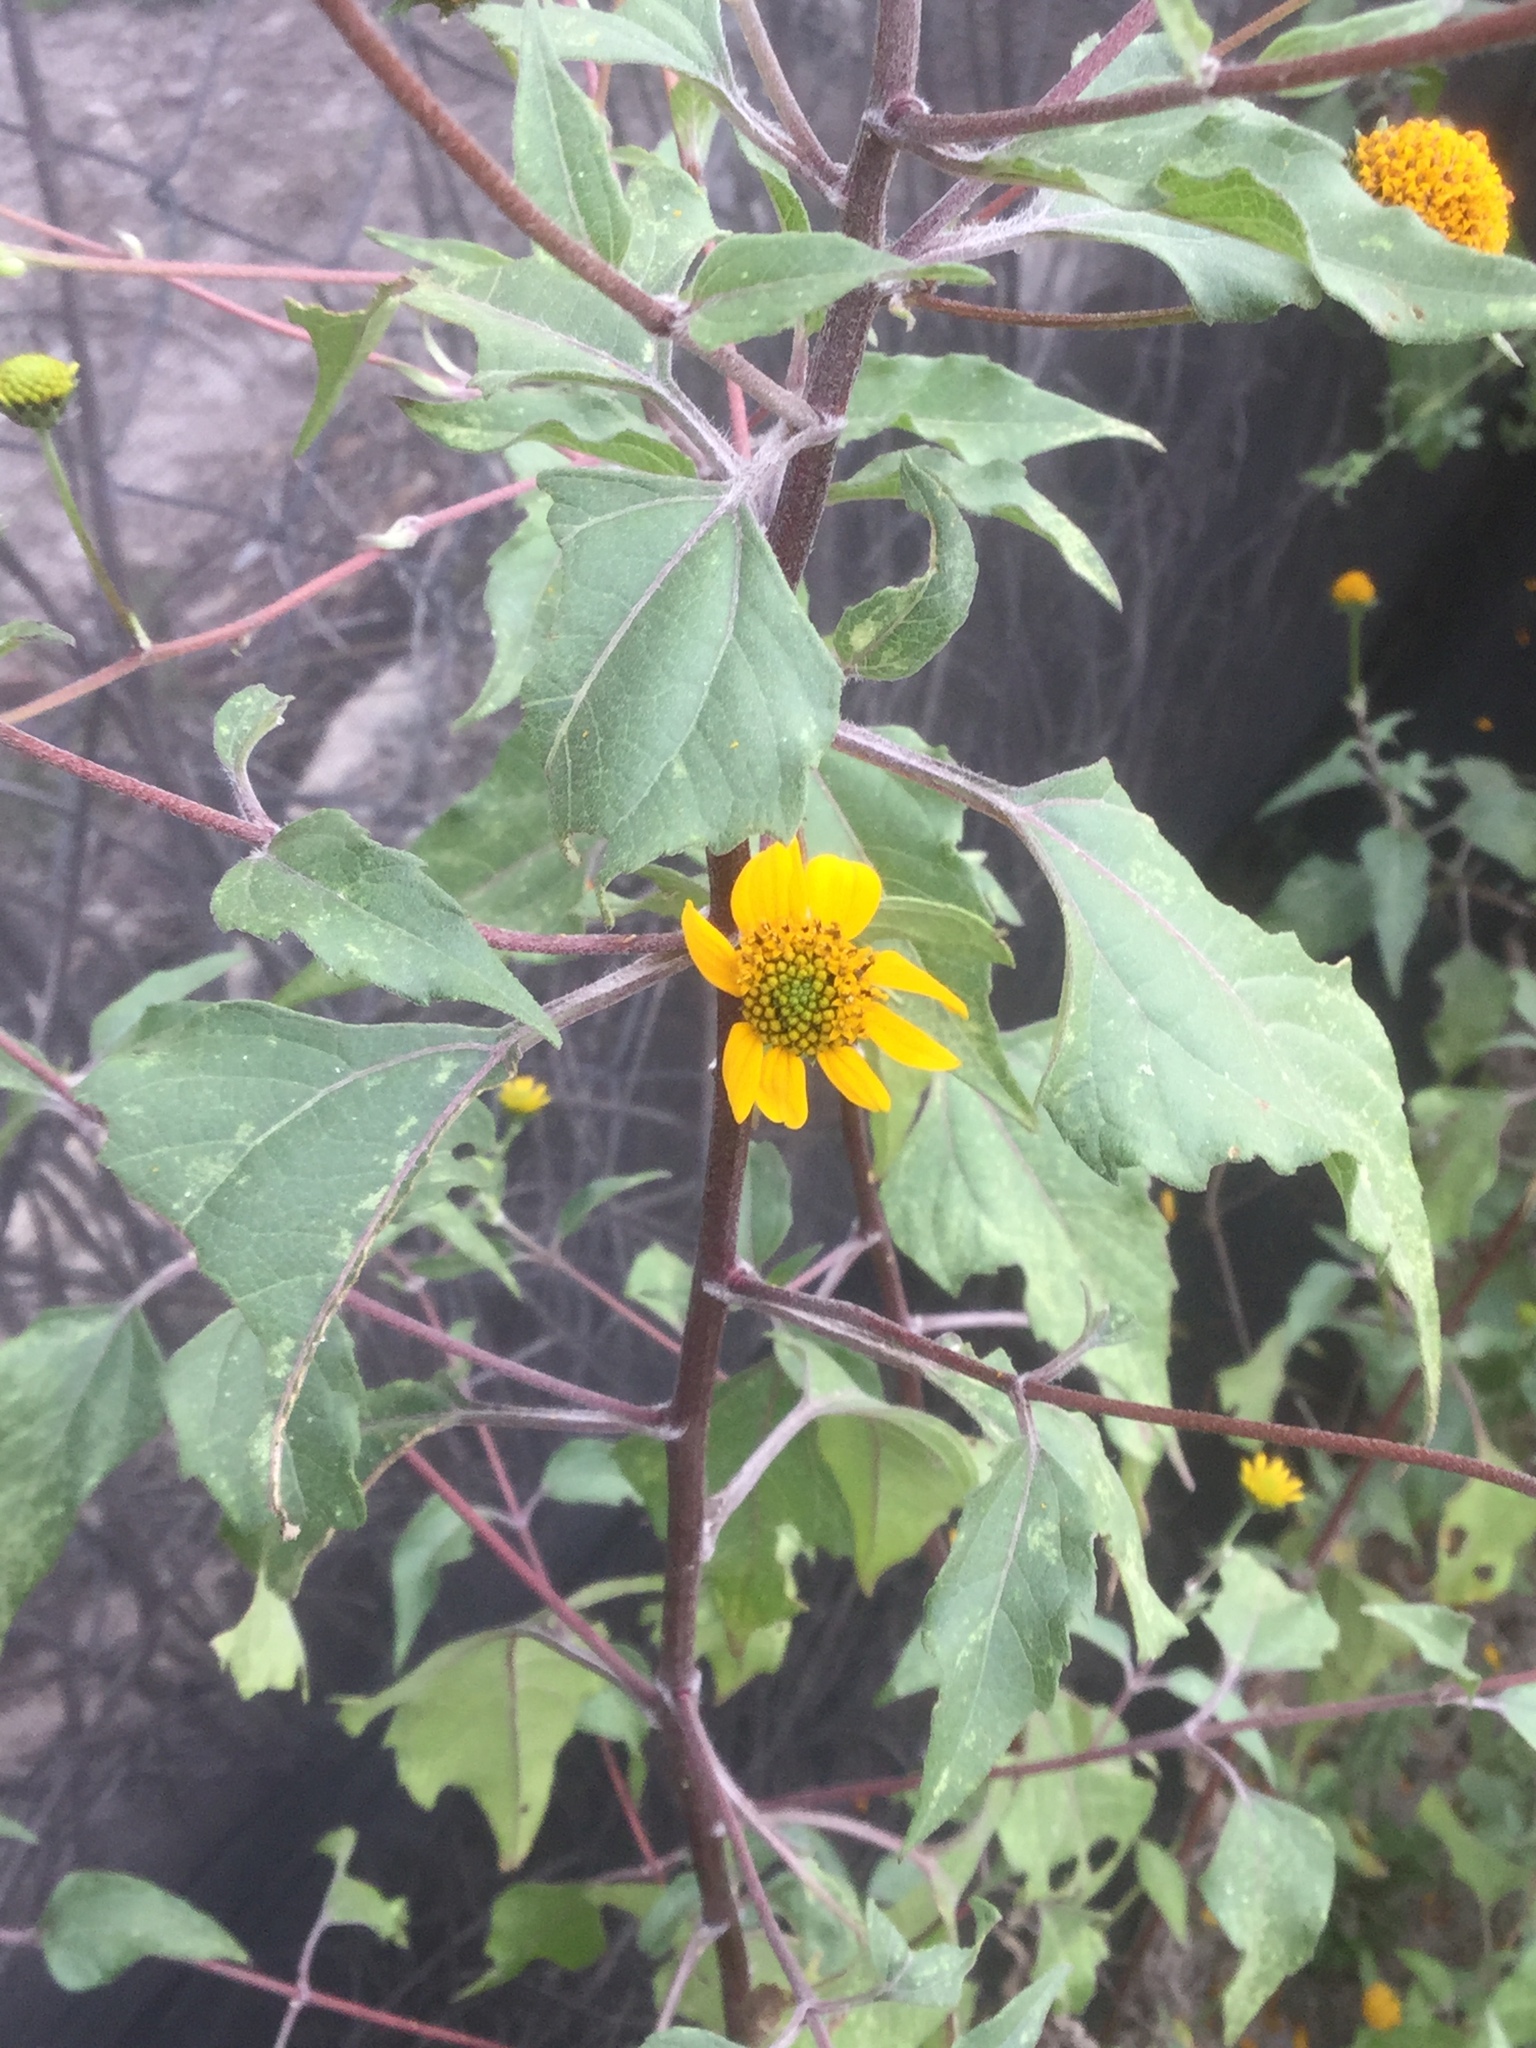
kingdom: Plantae
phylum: Tracheophyta
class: Magnoliopsida
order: Asterales
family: Asteraceae
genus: Viguiera
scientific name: Viguiera dentata
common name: Toothleaf
